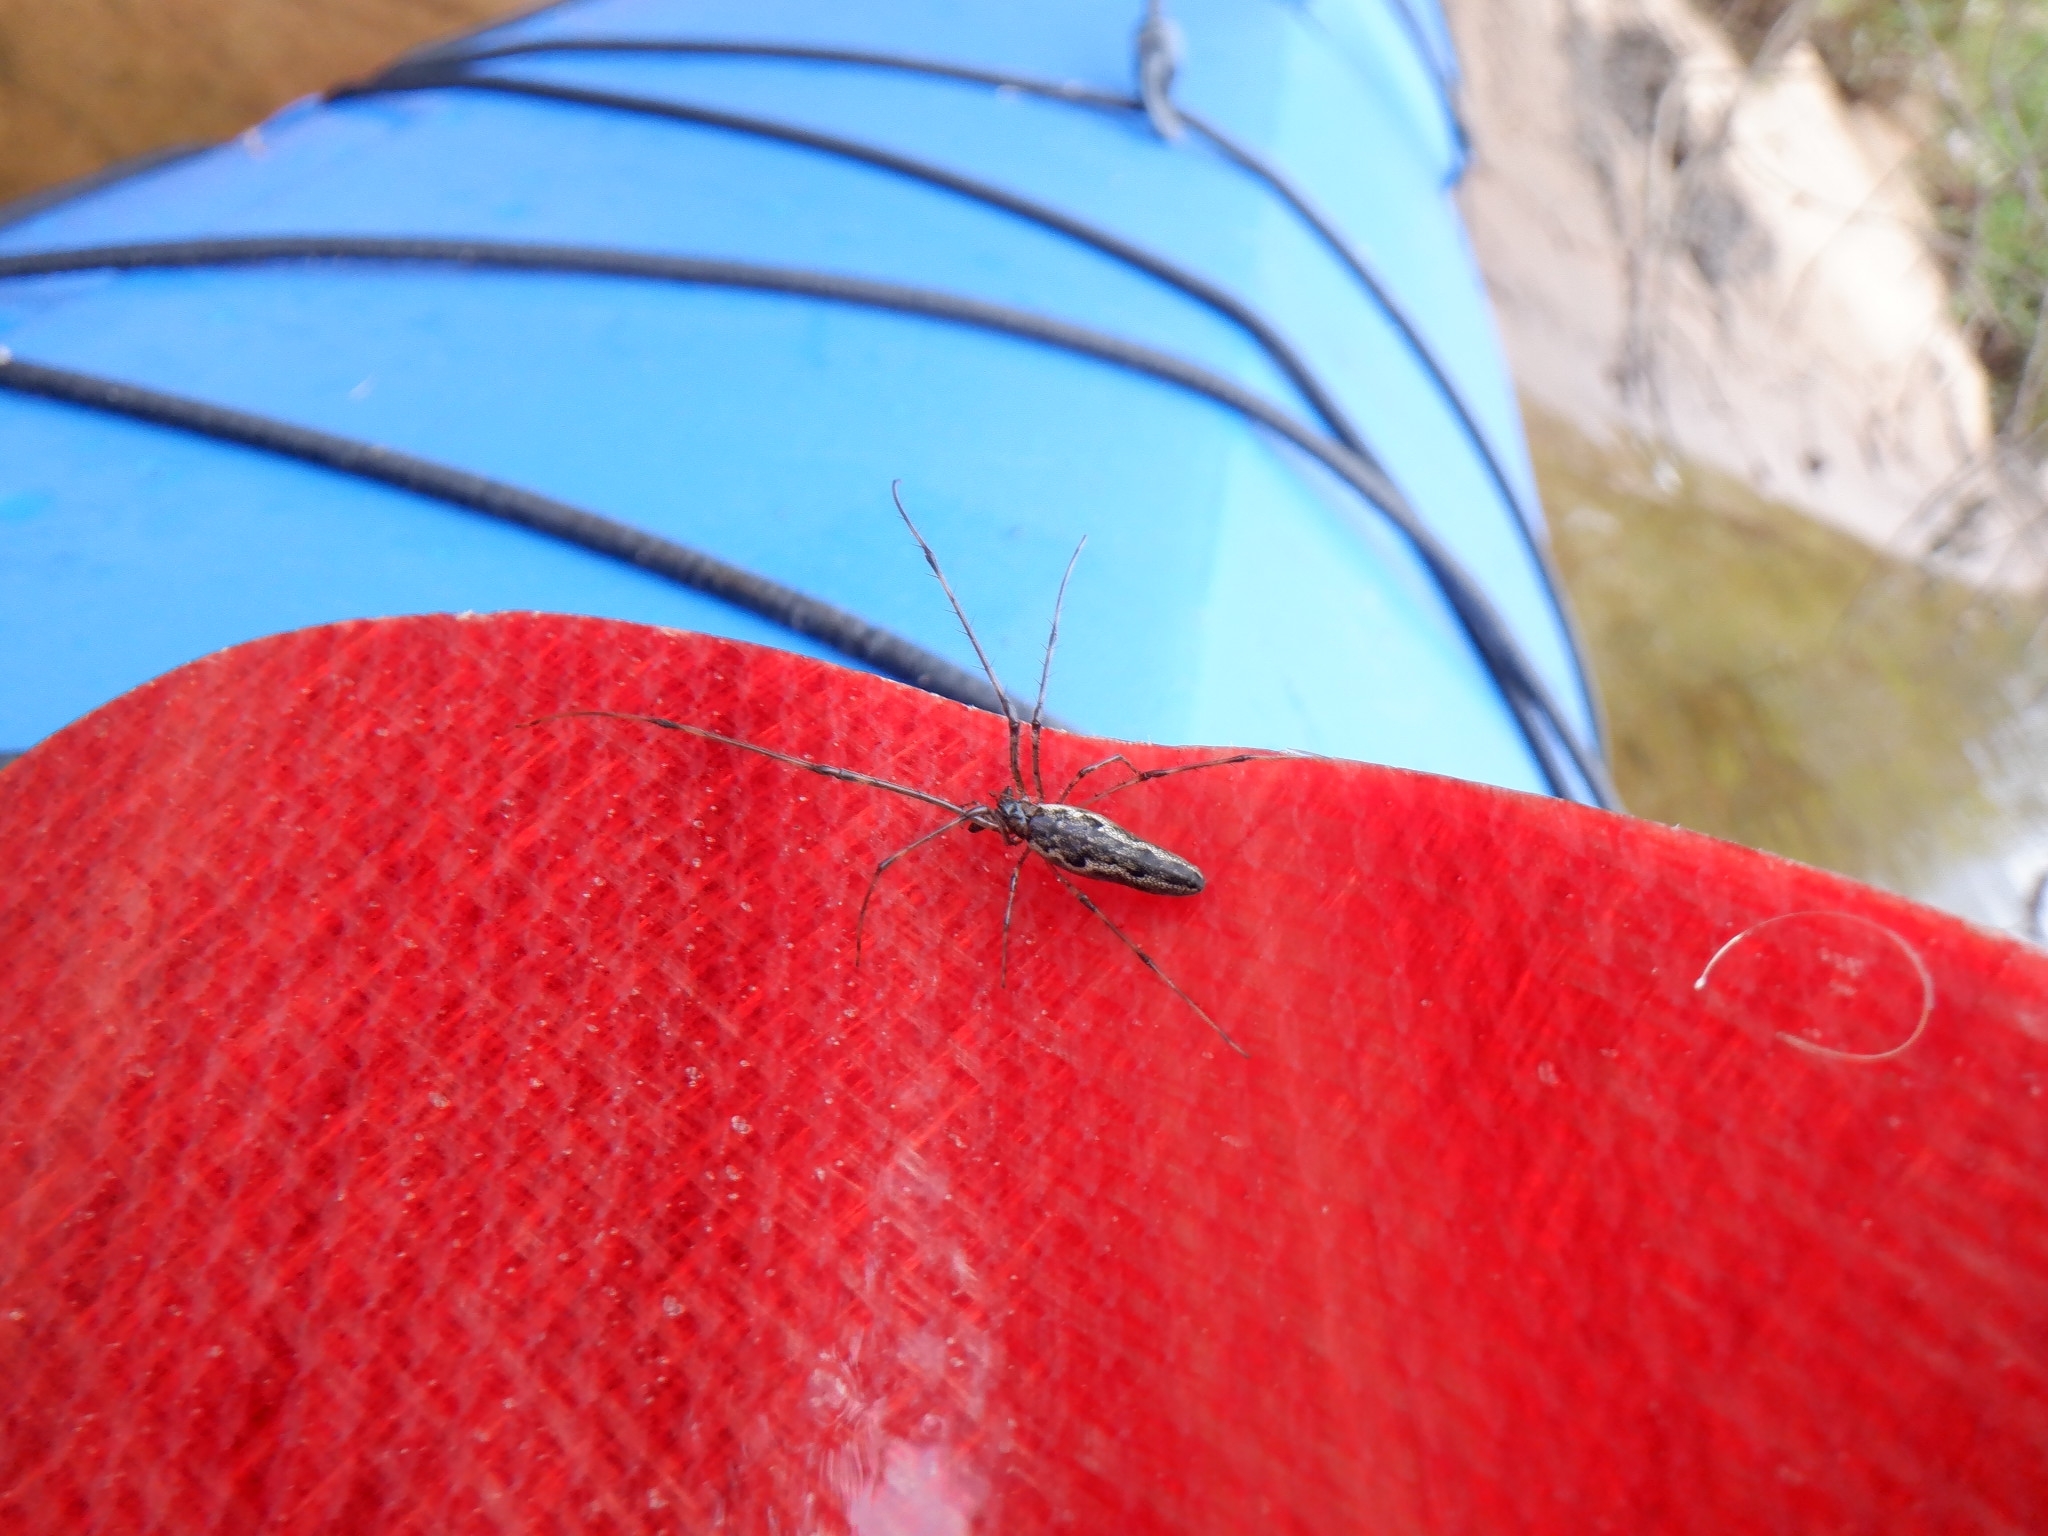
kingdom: Animalia
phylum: Arthropoda
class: Arachnida
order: Araneae
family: Tetragnathidae
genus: Tetragnatha
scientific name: Tetragnatha
